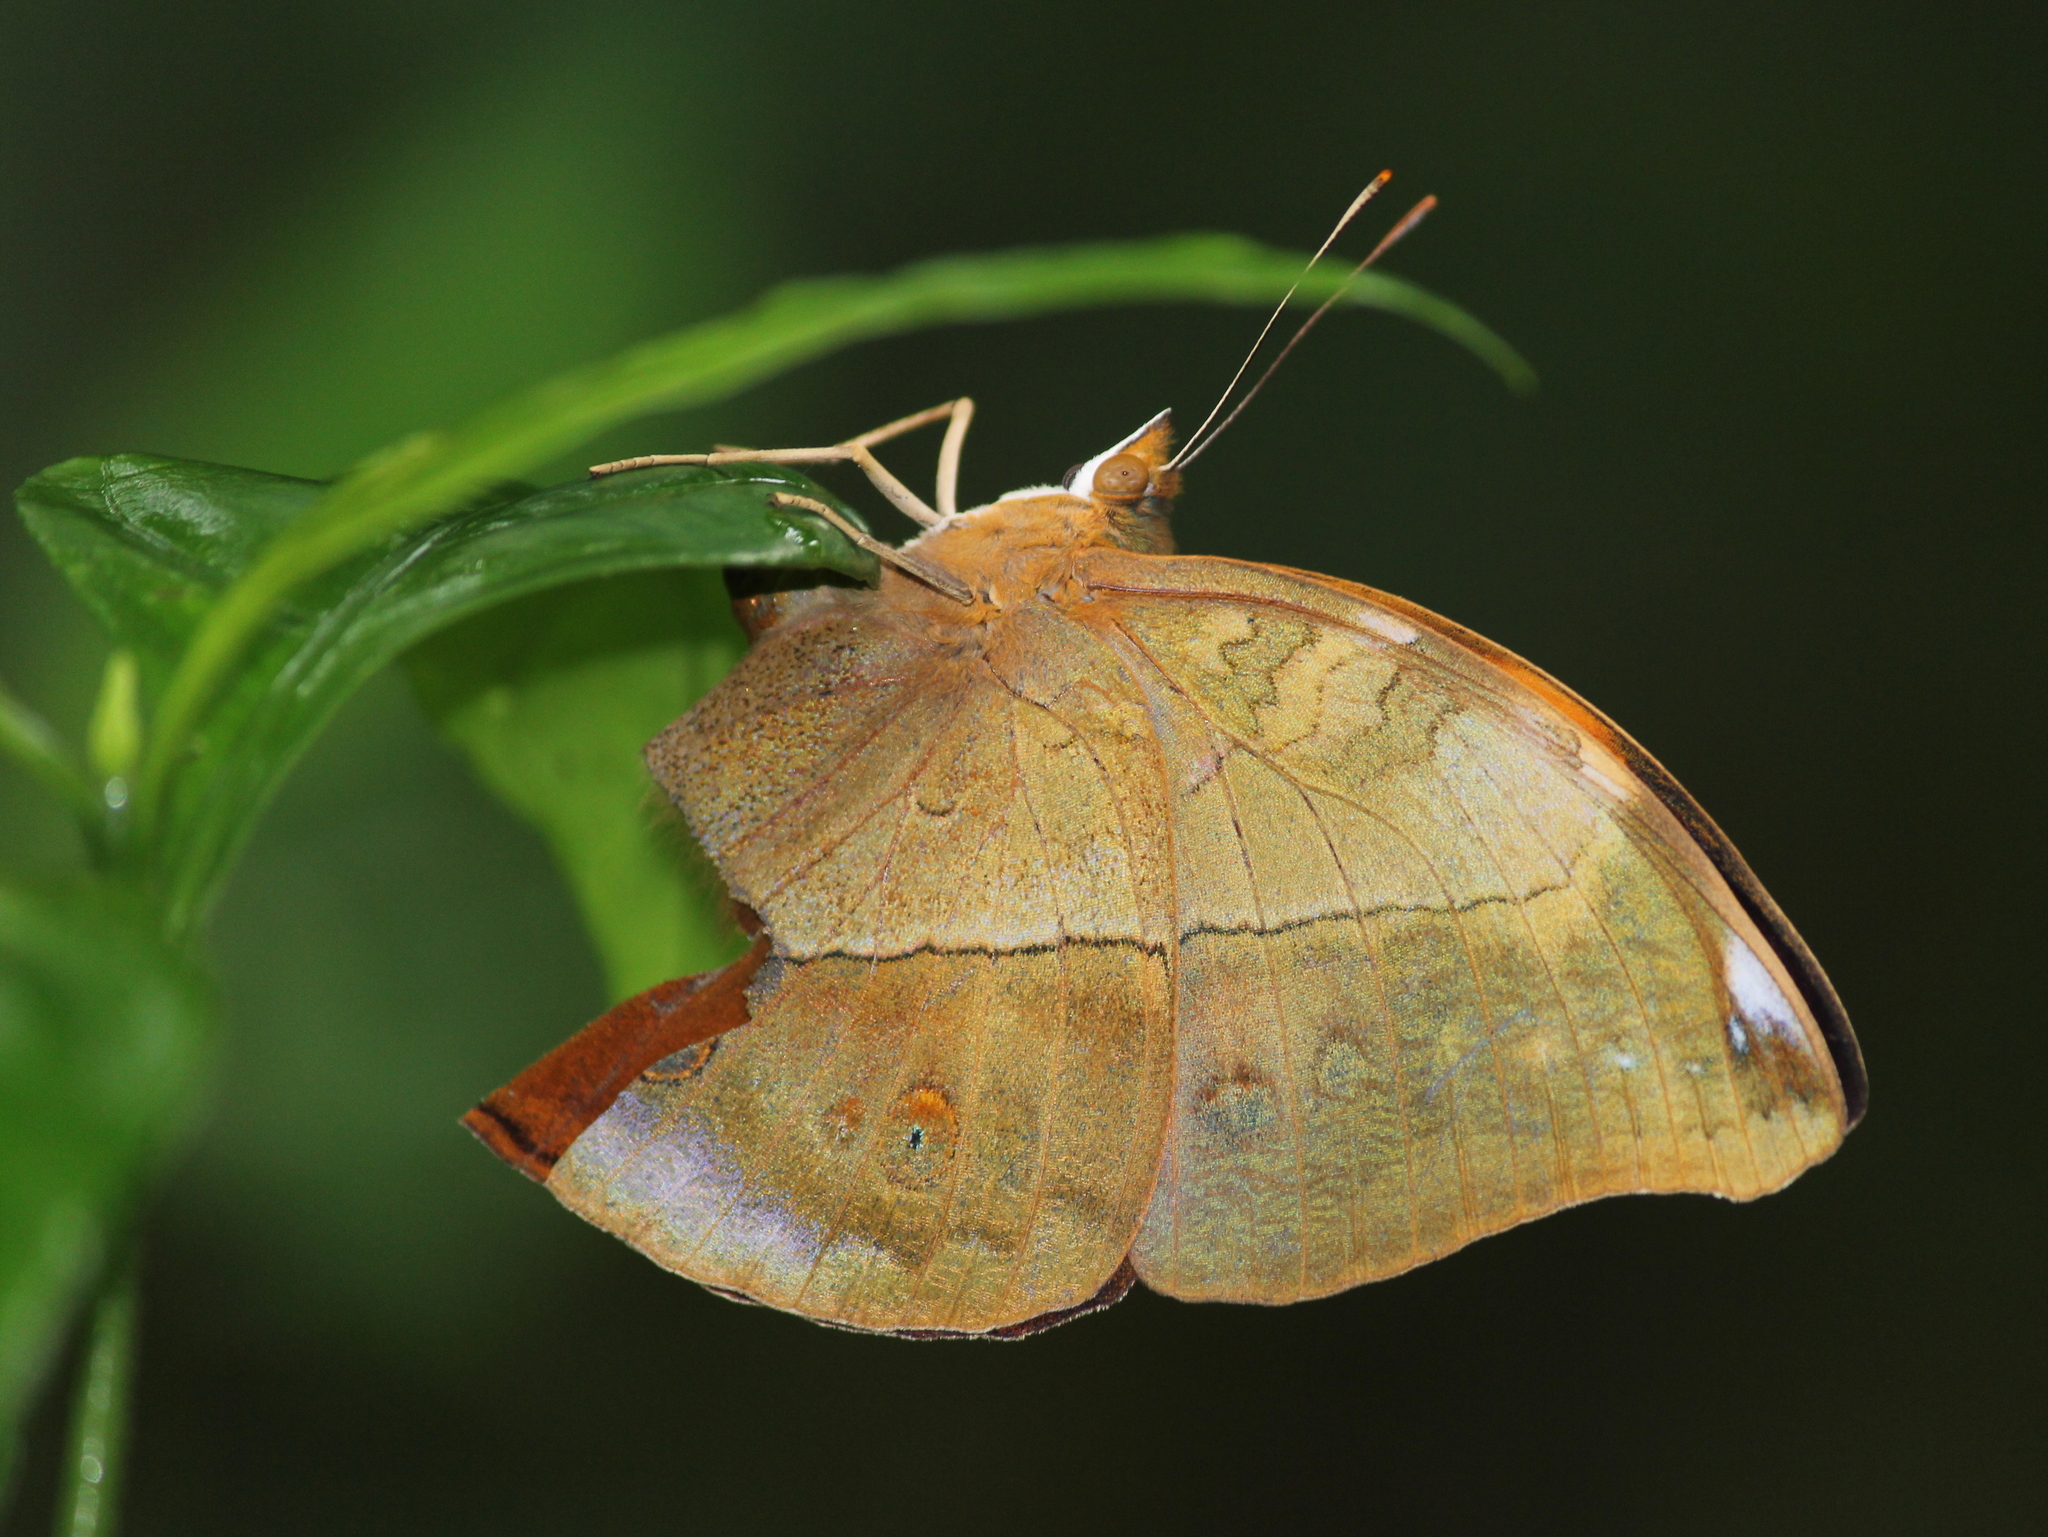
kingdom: Animalia
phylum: Arthropoda
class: Insecta
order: Lepidoptera
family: Nymphalidae
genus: Doleschallia
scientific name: Doleschallia bisaltide
